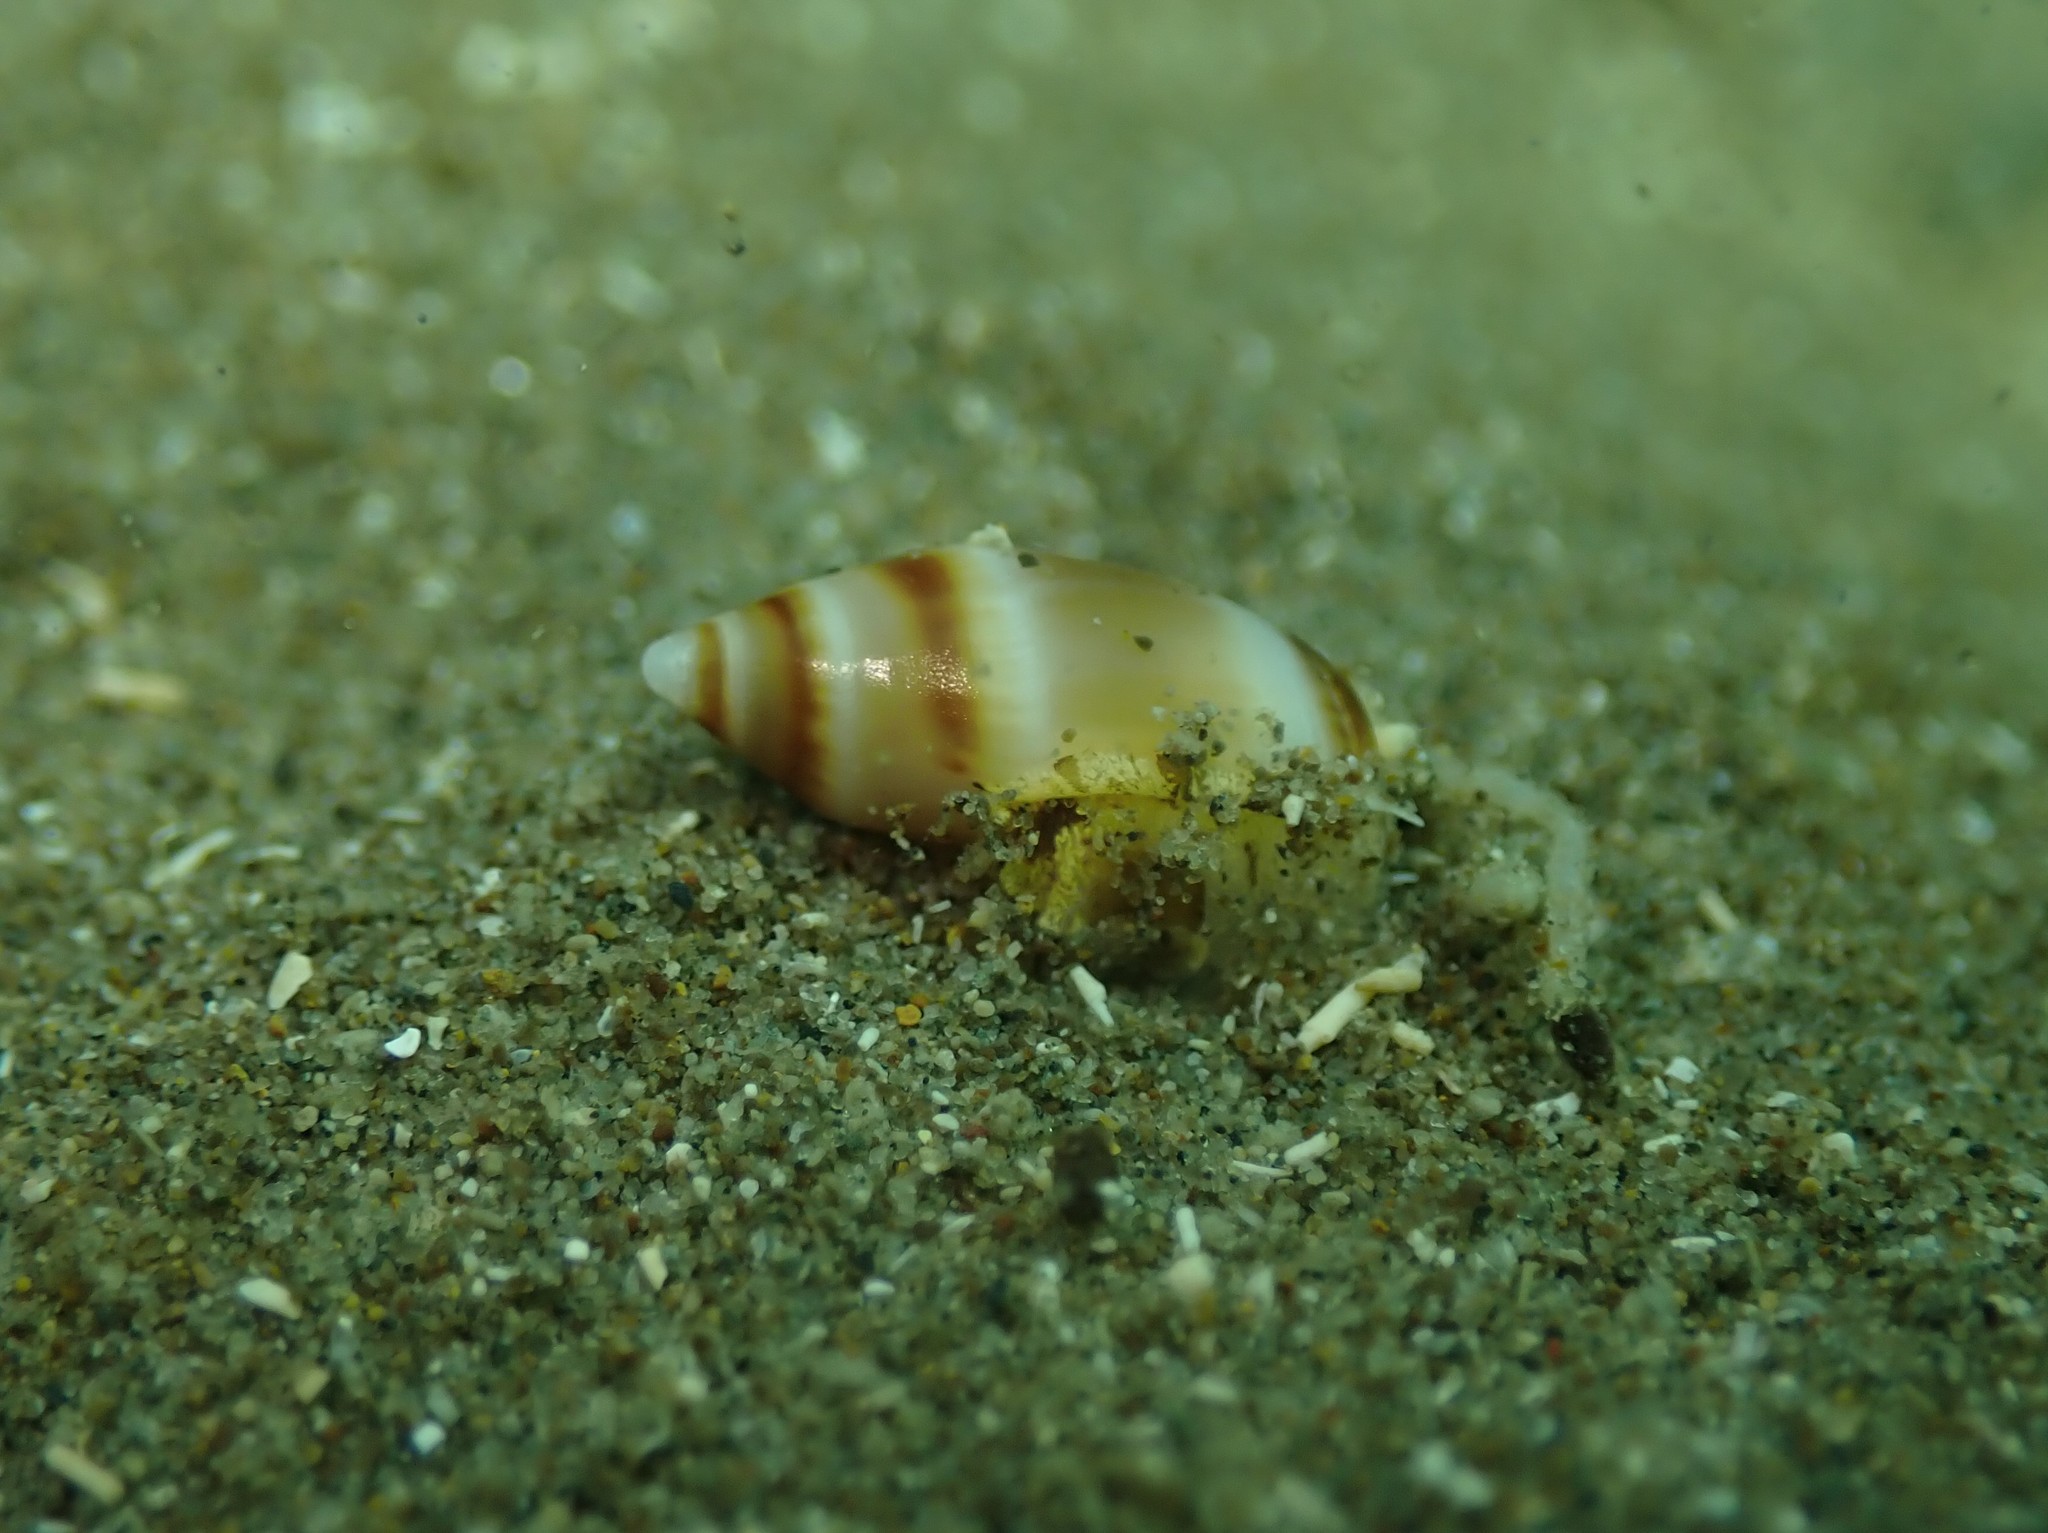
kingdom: Animalia
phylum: Mollusca
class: Gastropoda
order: Neogastropoda
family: Ancillariidae
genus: Amalda
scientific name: Amalda novaezelandiae
